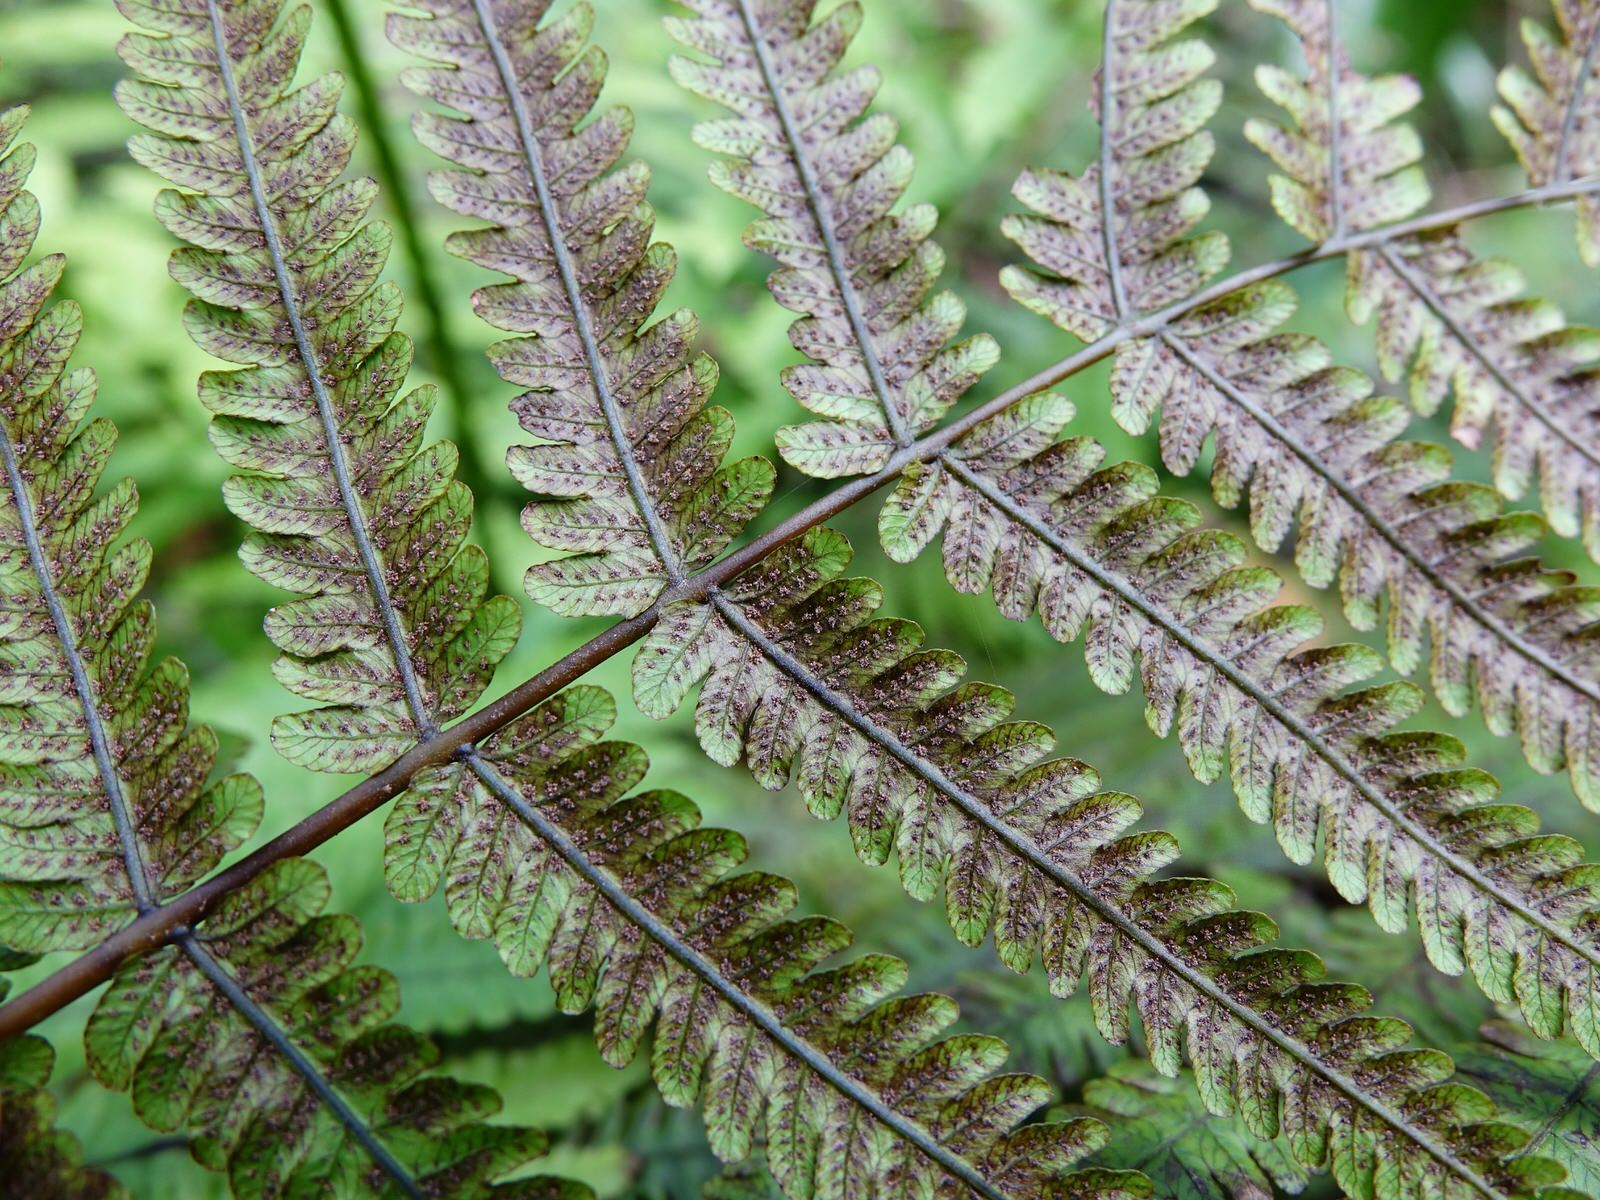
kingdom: Plantae
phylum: Tracheophyta
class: Polypodiopsida
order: Polypodiales
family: Thelypteridaceae
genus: Pakau
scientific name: Pakau pennigera
